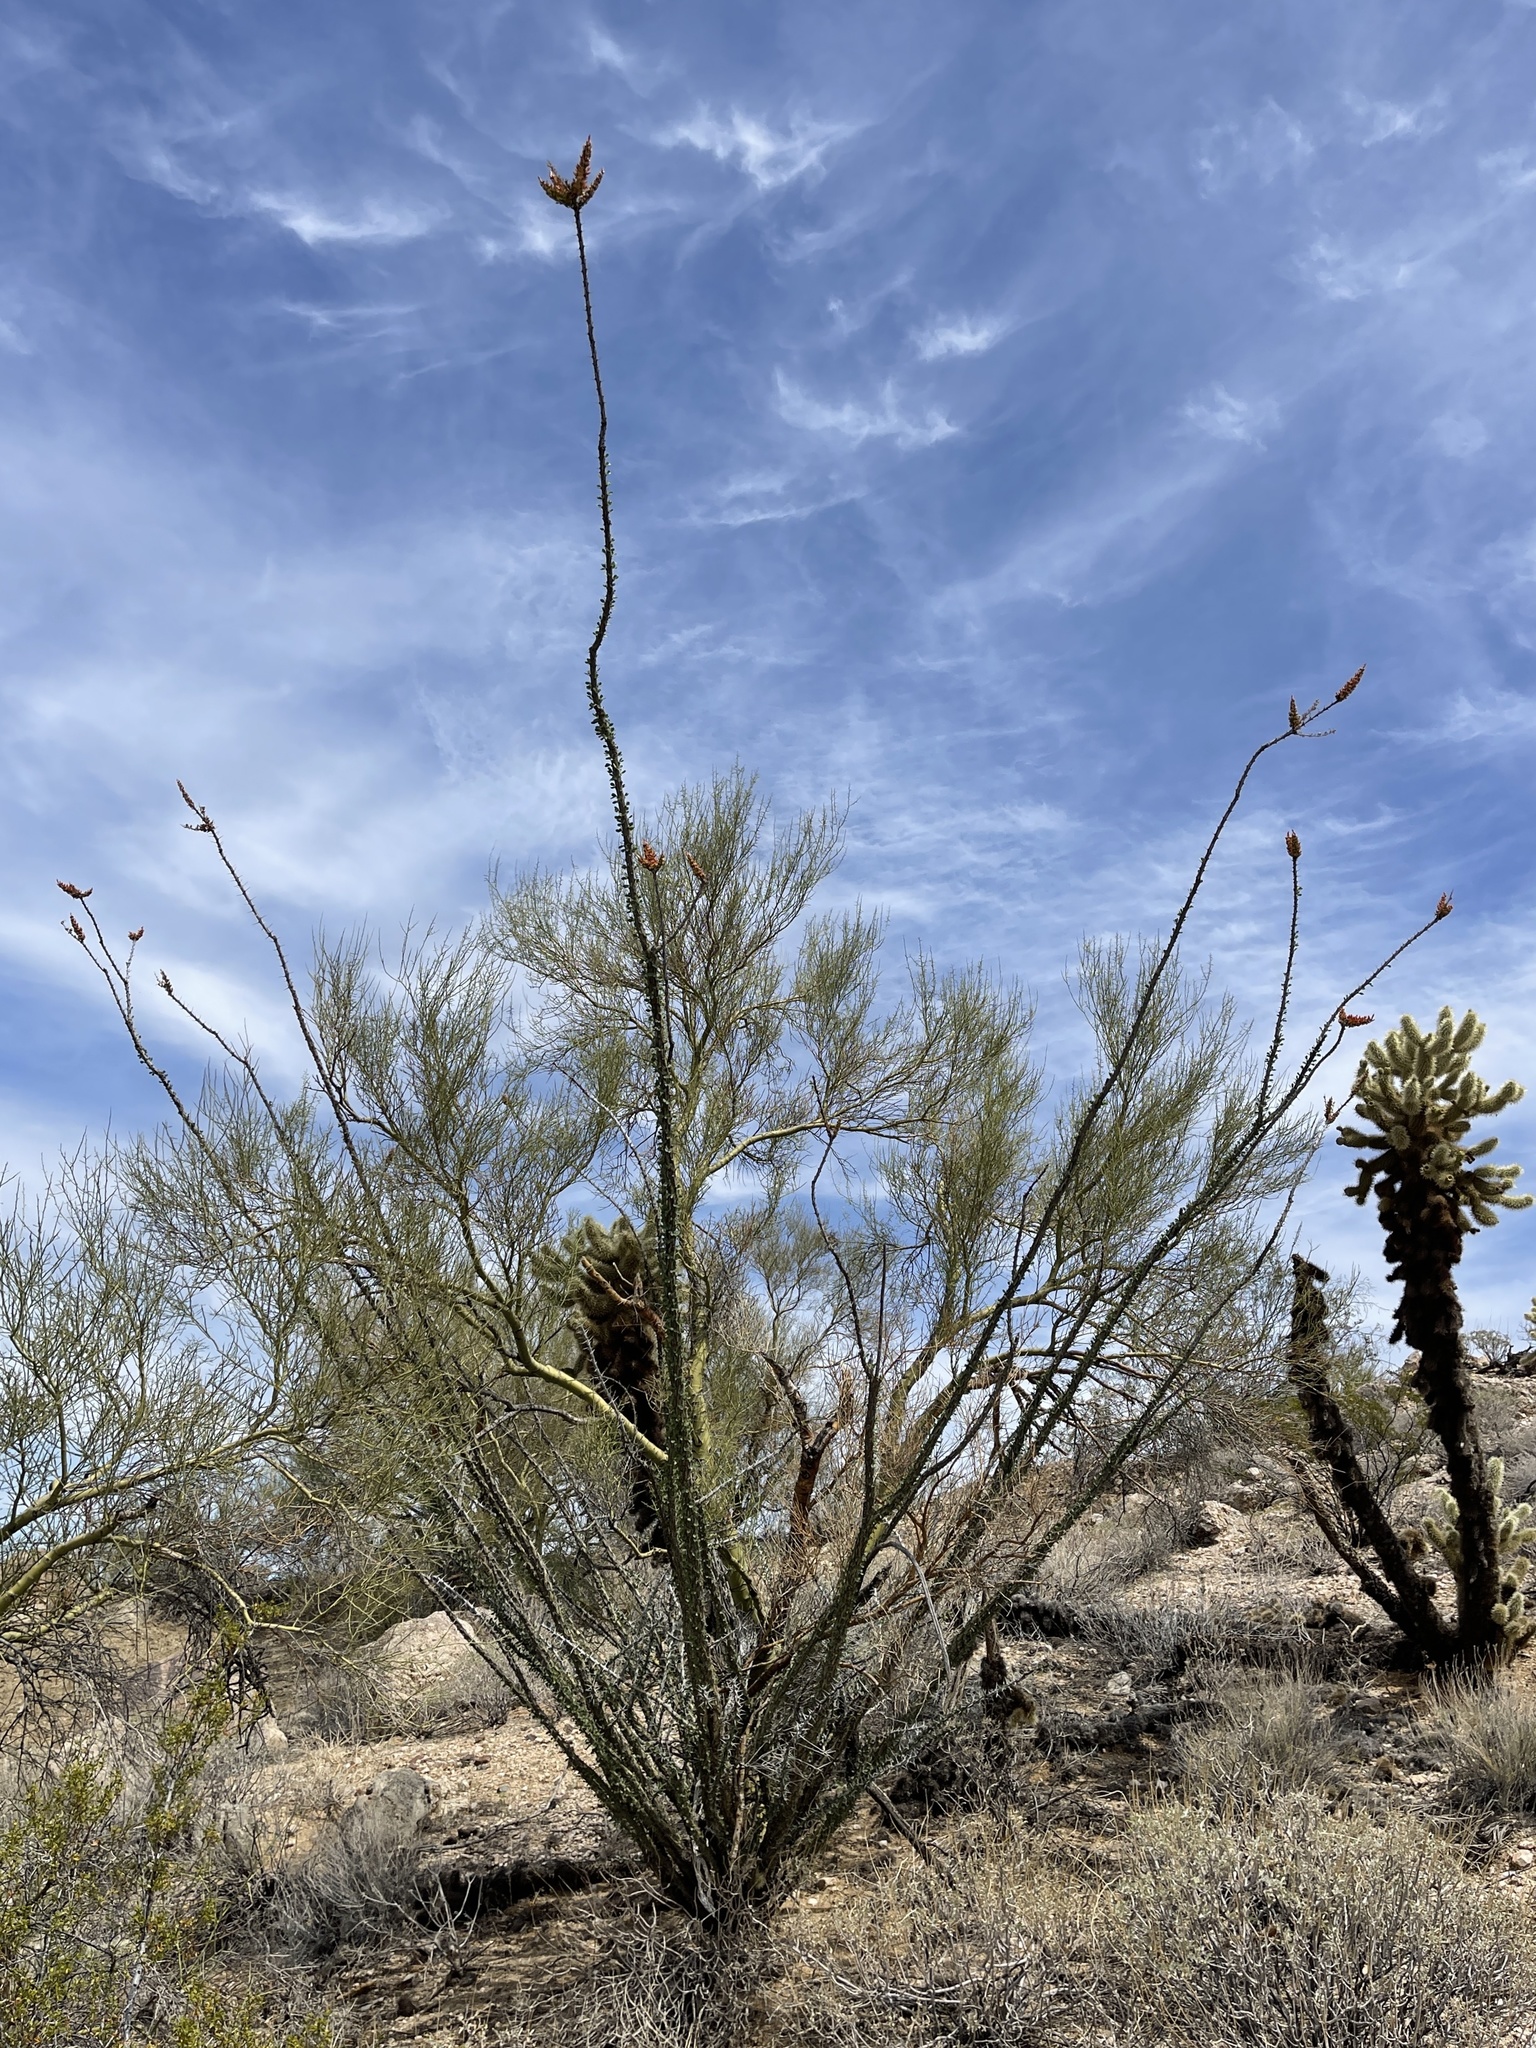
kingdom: Plantae
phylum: Tracheophyta
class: Magnoliopsida
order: Ericales
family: Fouquieriaceae
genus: Fouquieria
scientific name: Fouquieria splendens
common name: Vine-cactus
